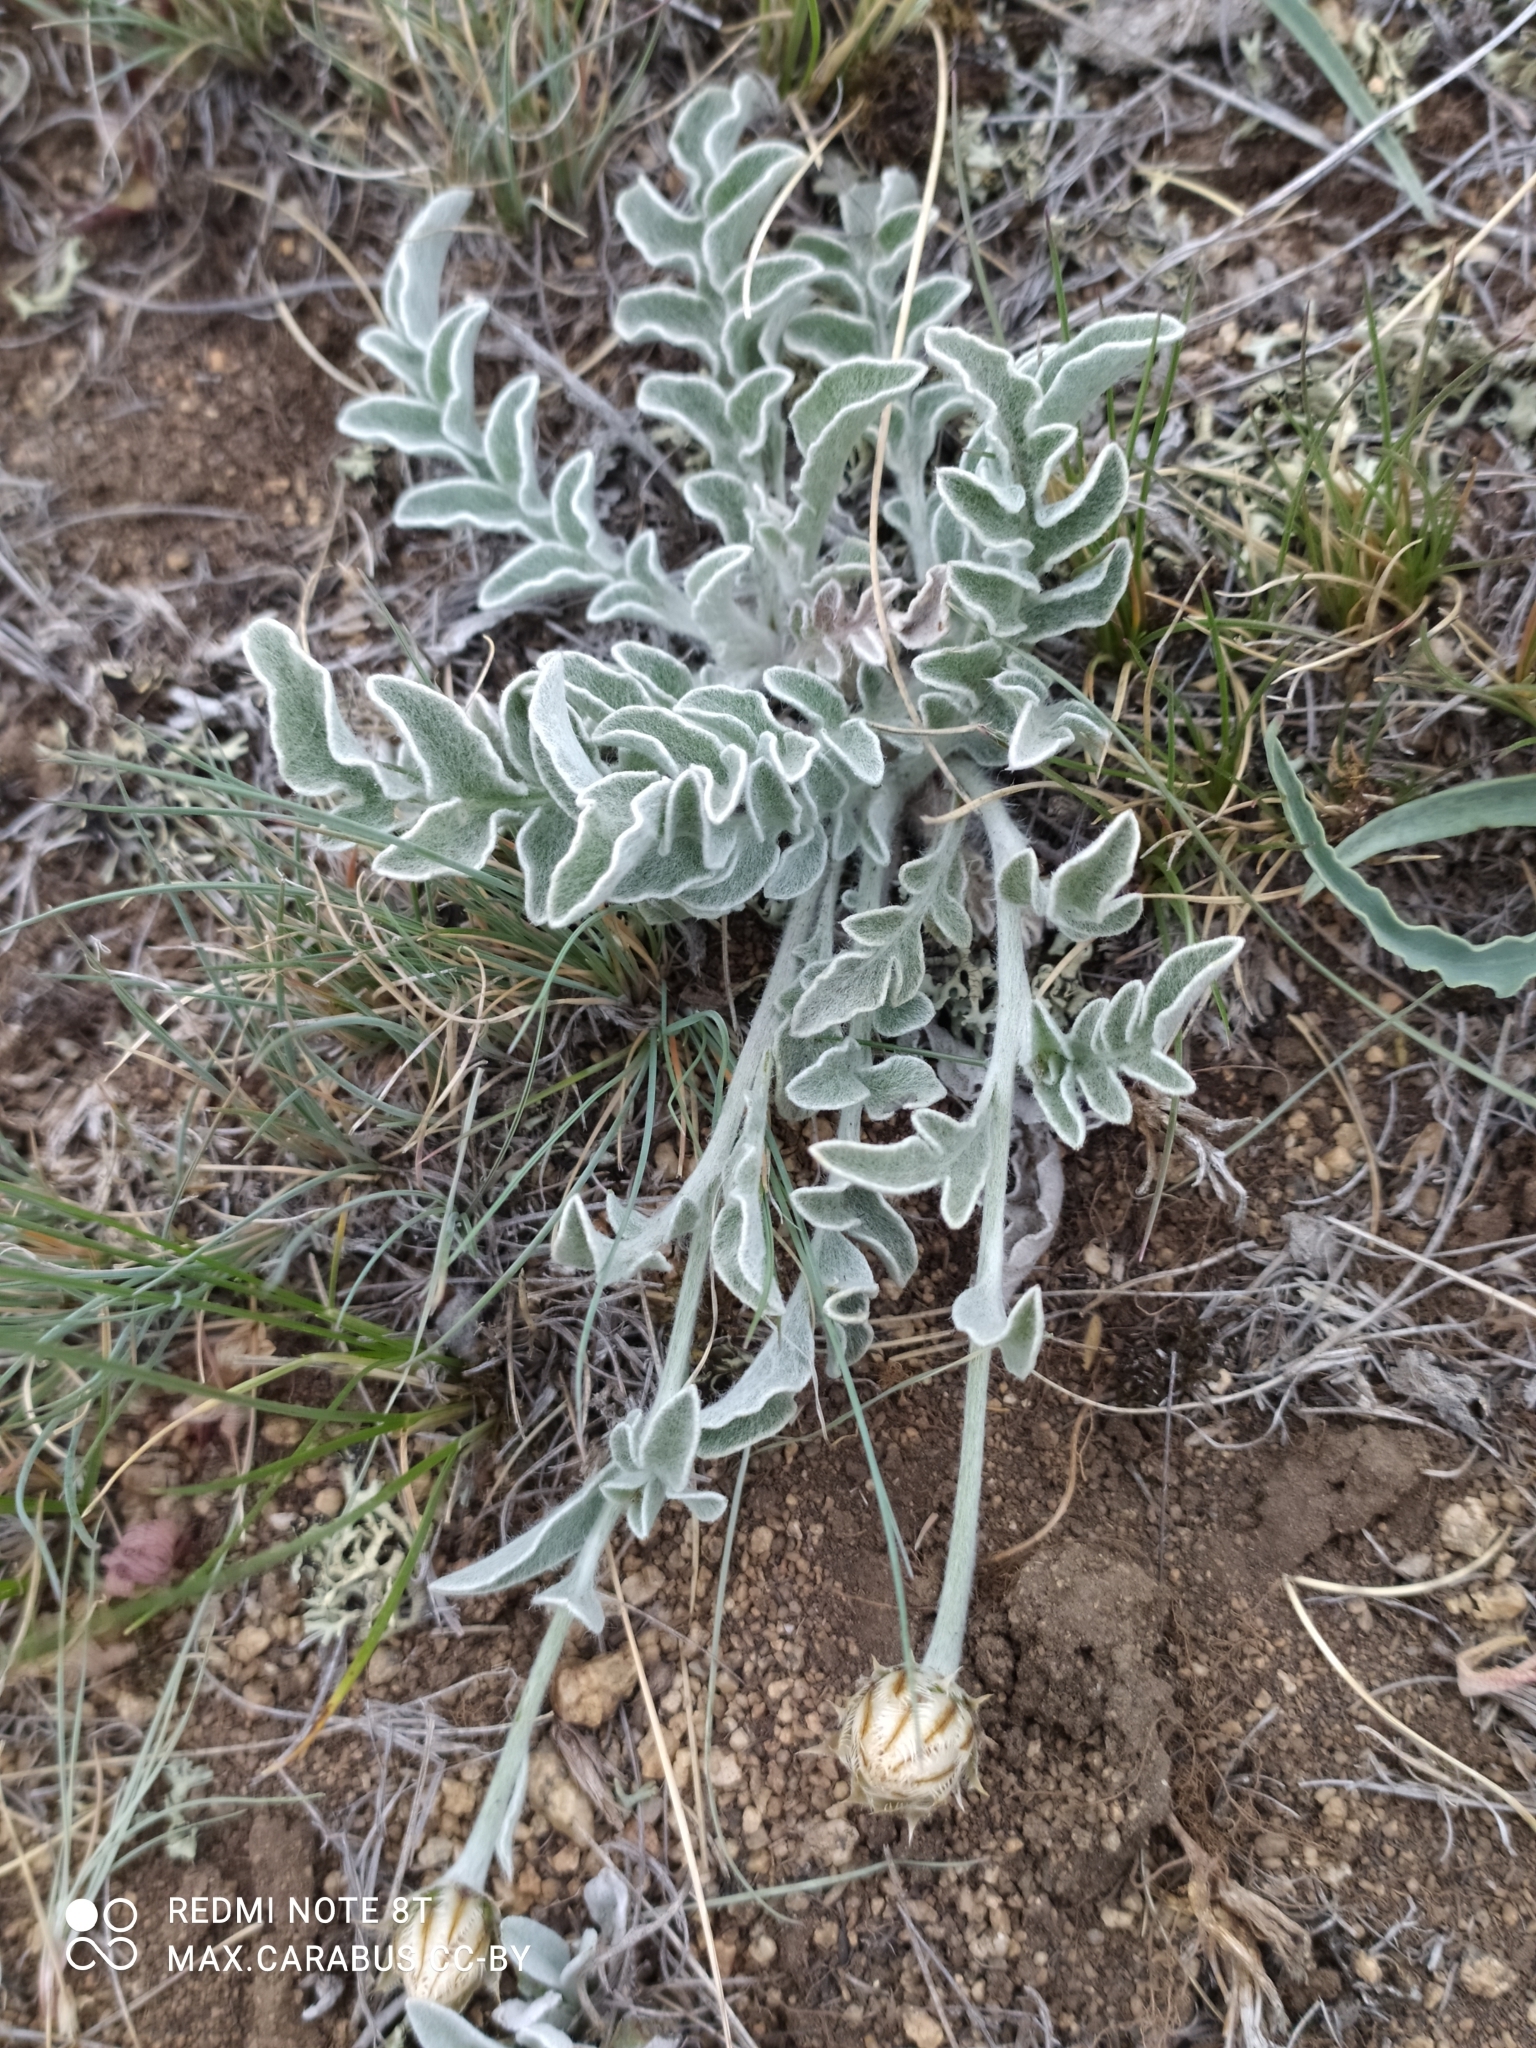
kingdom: Plantae
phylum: Tracheophyta
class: Magnoliopsida
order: Asterales
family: Asteraceae
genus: Psephellus
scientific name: Psephellus sibiricus
